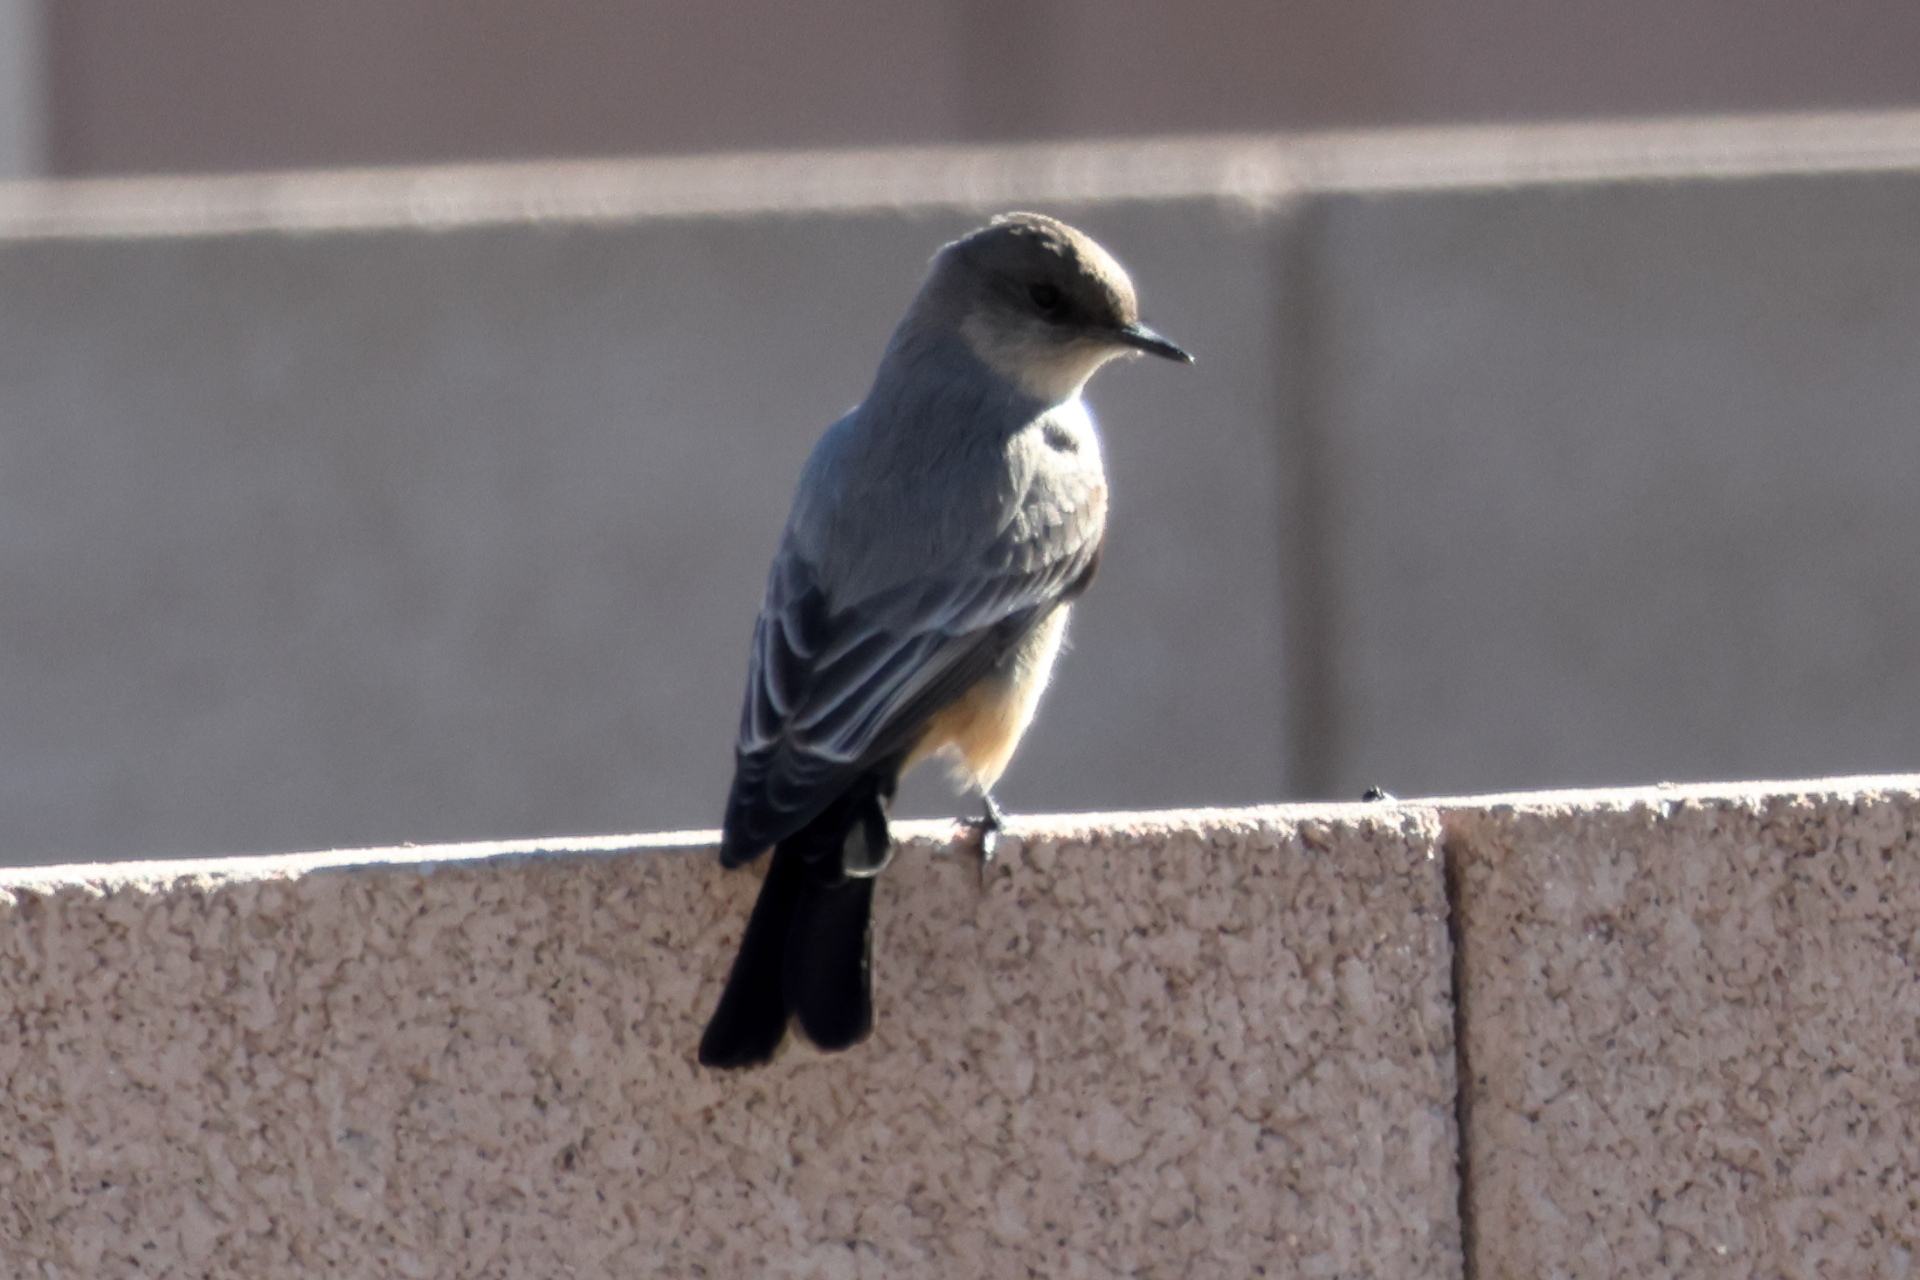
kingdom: Animalia
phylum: Chordata
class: Aves
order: Passeriformes
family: Tyrannidae
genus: Sayornis
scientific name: Sayornis saya
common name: Say's phoebe
